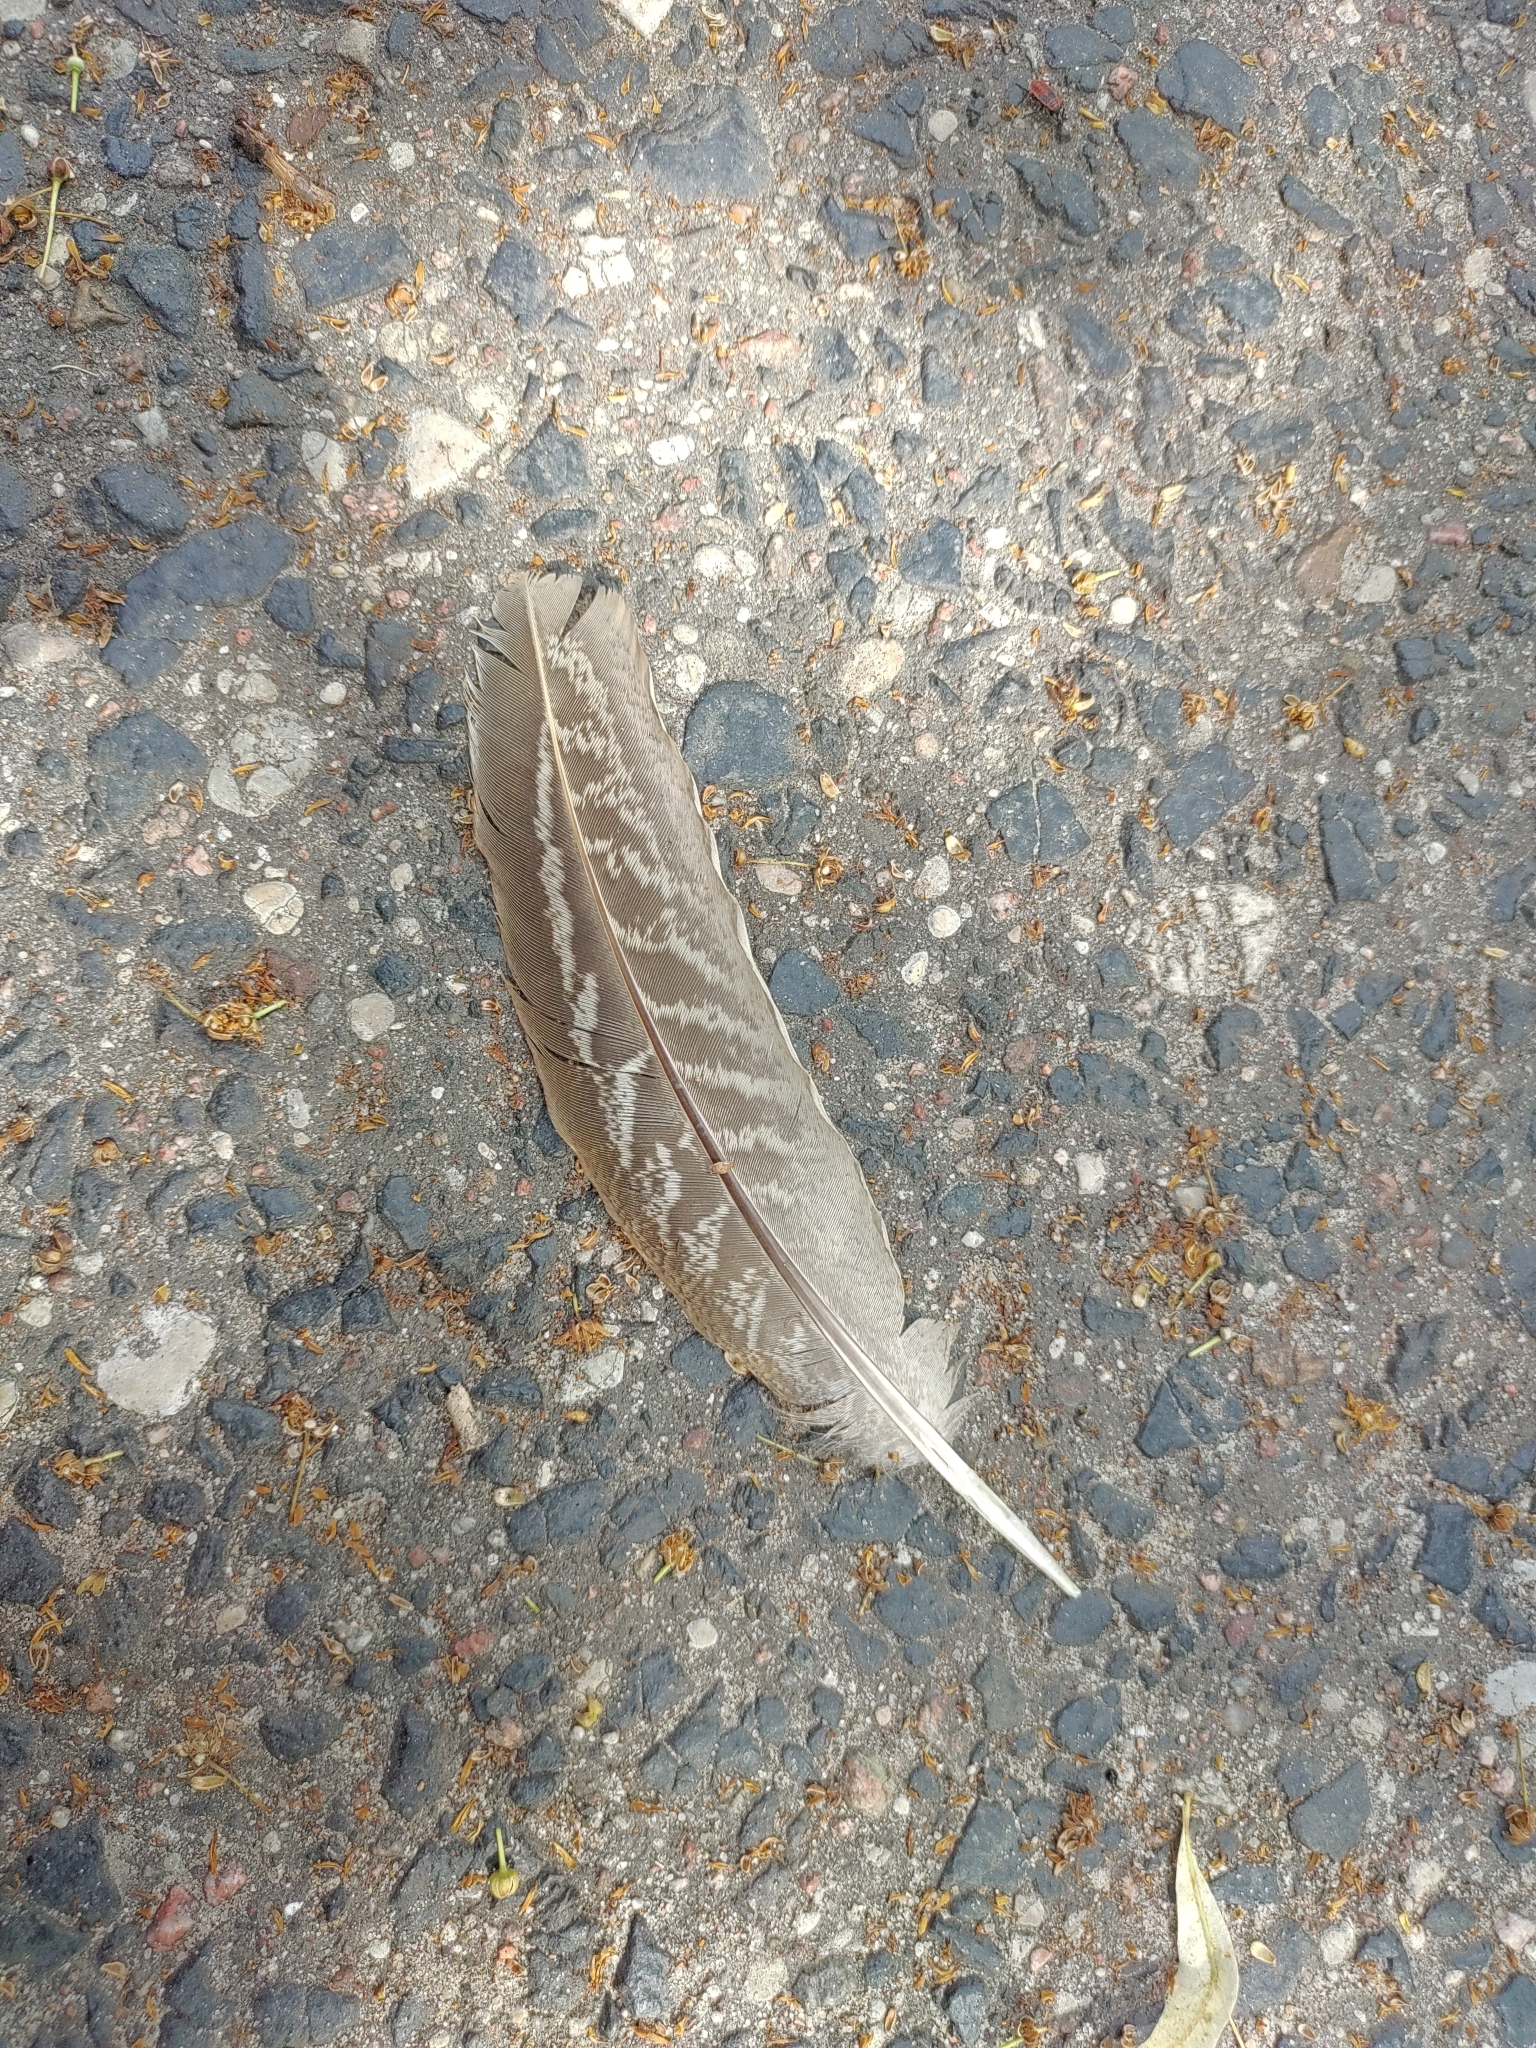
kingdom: Animalia
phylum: Chordata
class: Aves
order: Galliformes
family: Phasianidae
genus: Phasianus
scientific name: Phasianus colchicus
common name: Common pheasant
